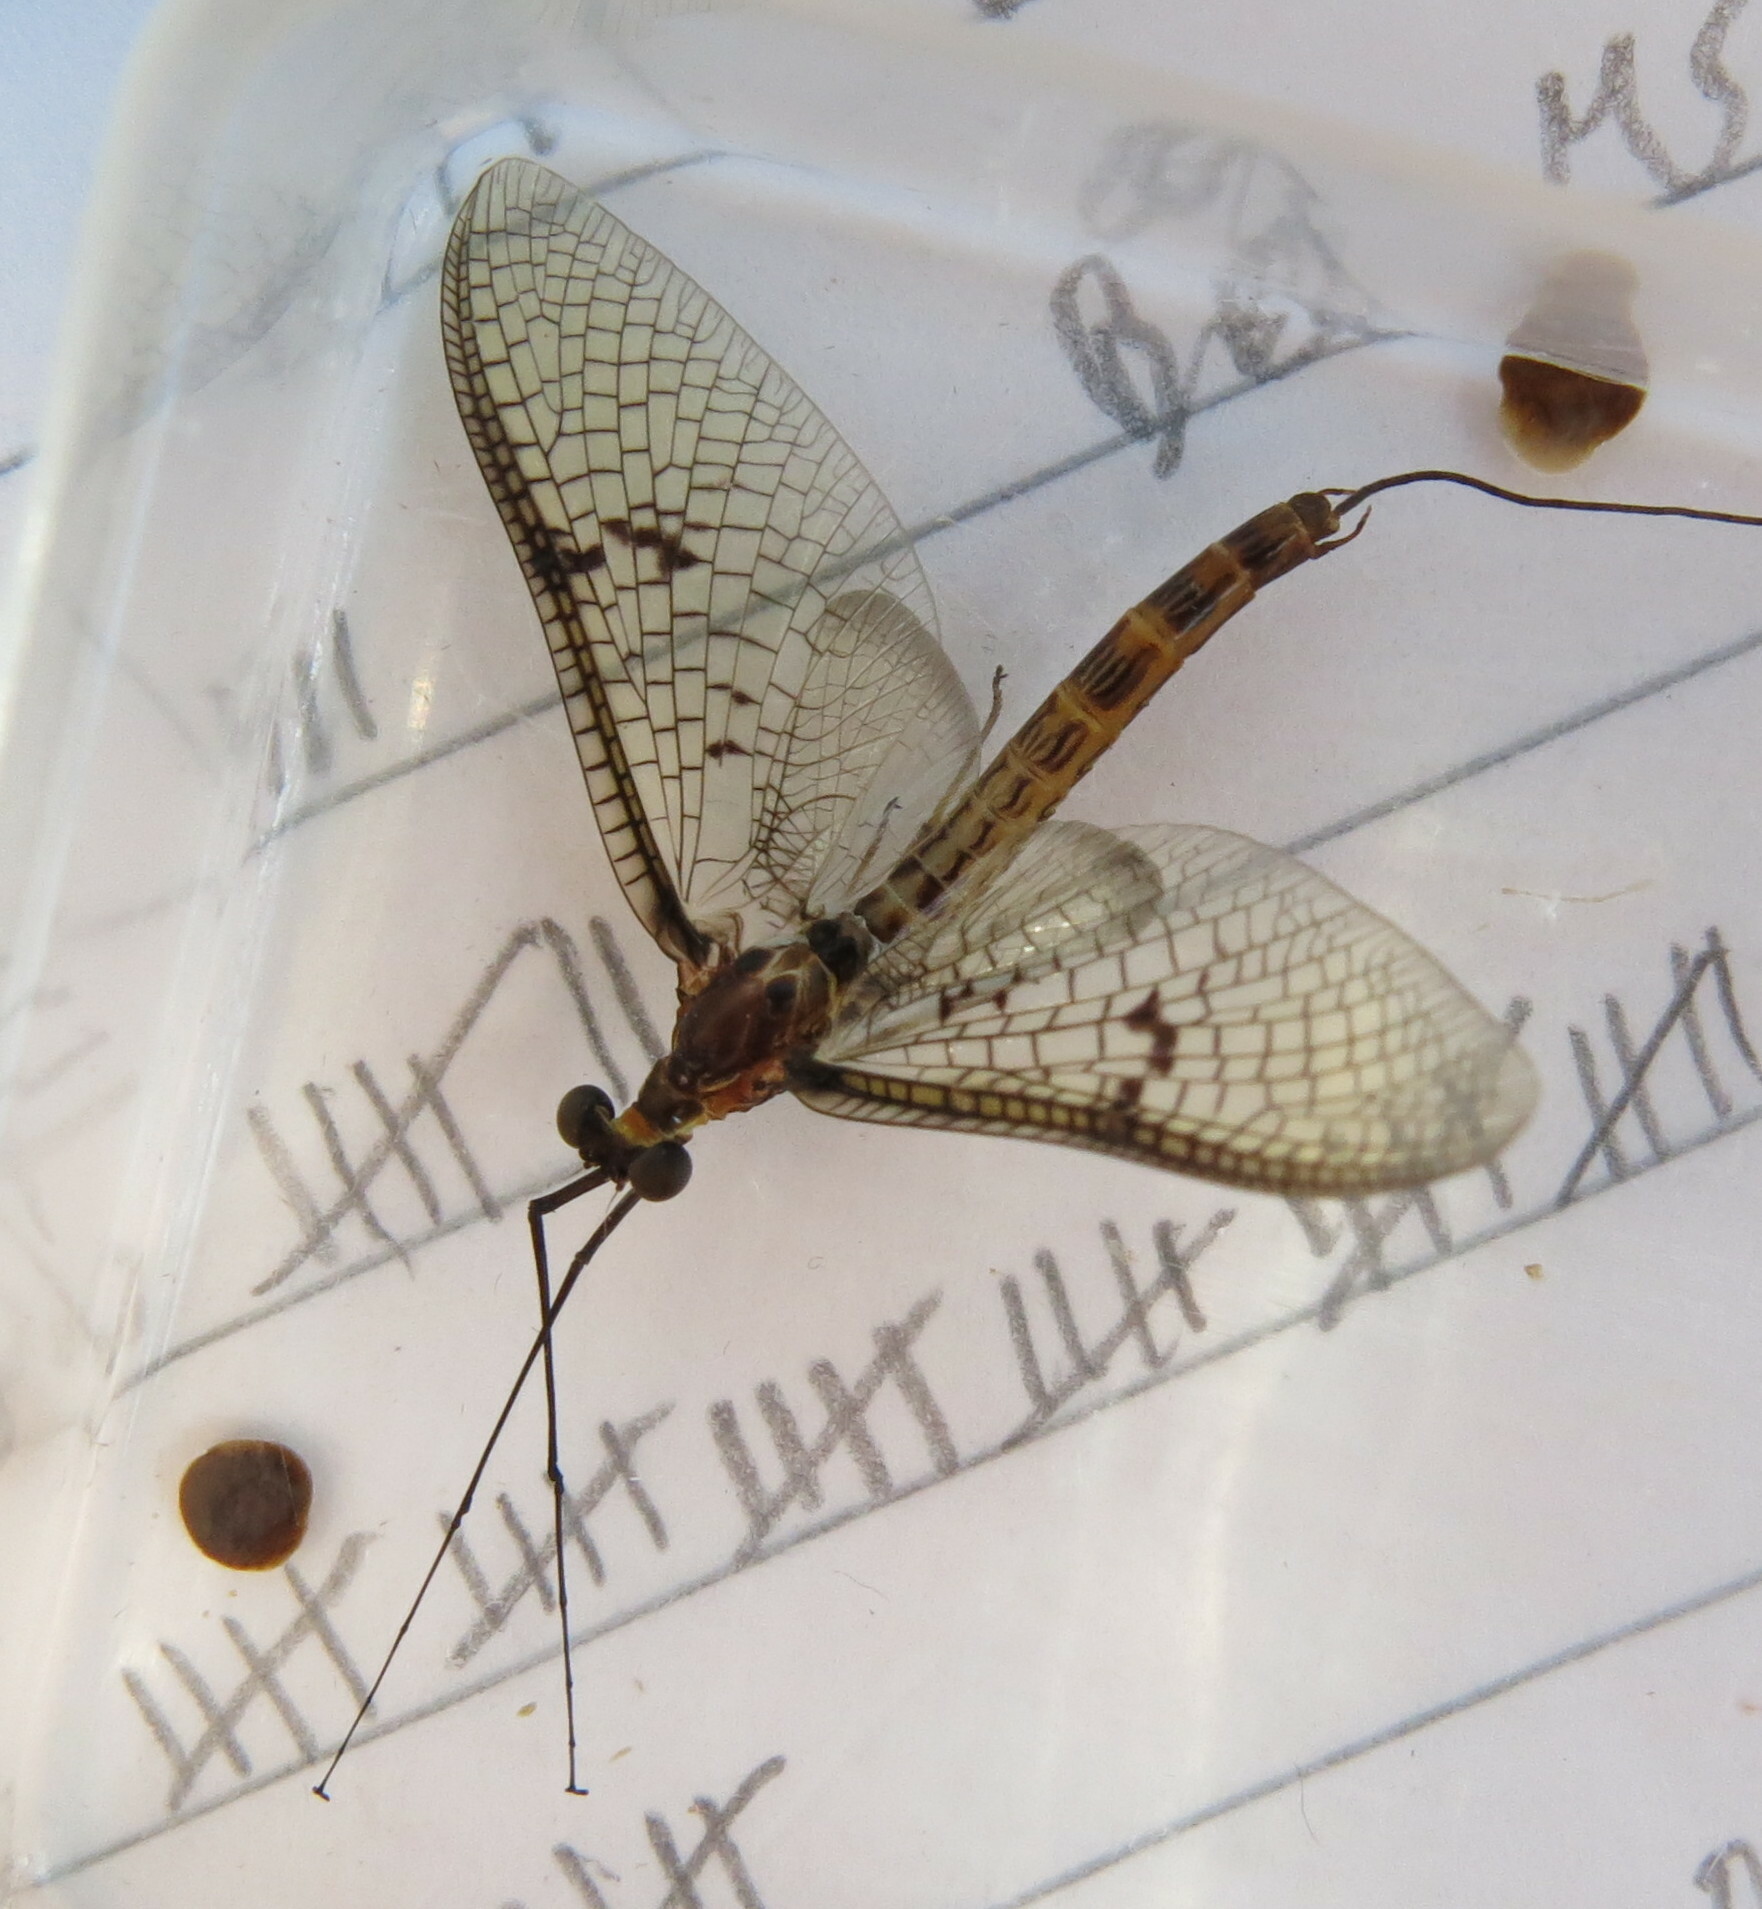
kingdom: Animalia
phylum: Arthropoda
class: Insecta
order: Ephemeroptera
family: Ephemeridae
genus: Ephemera
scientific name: Ephemera lineata
